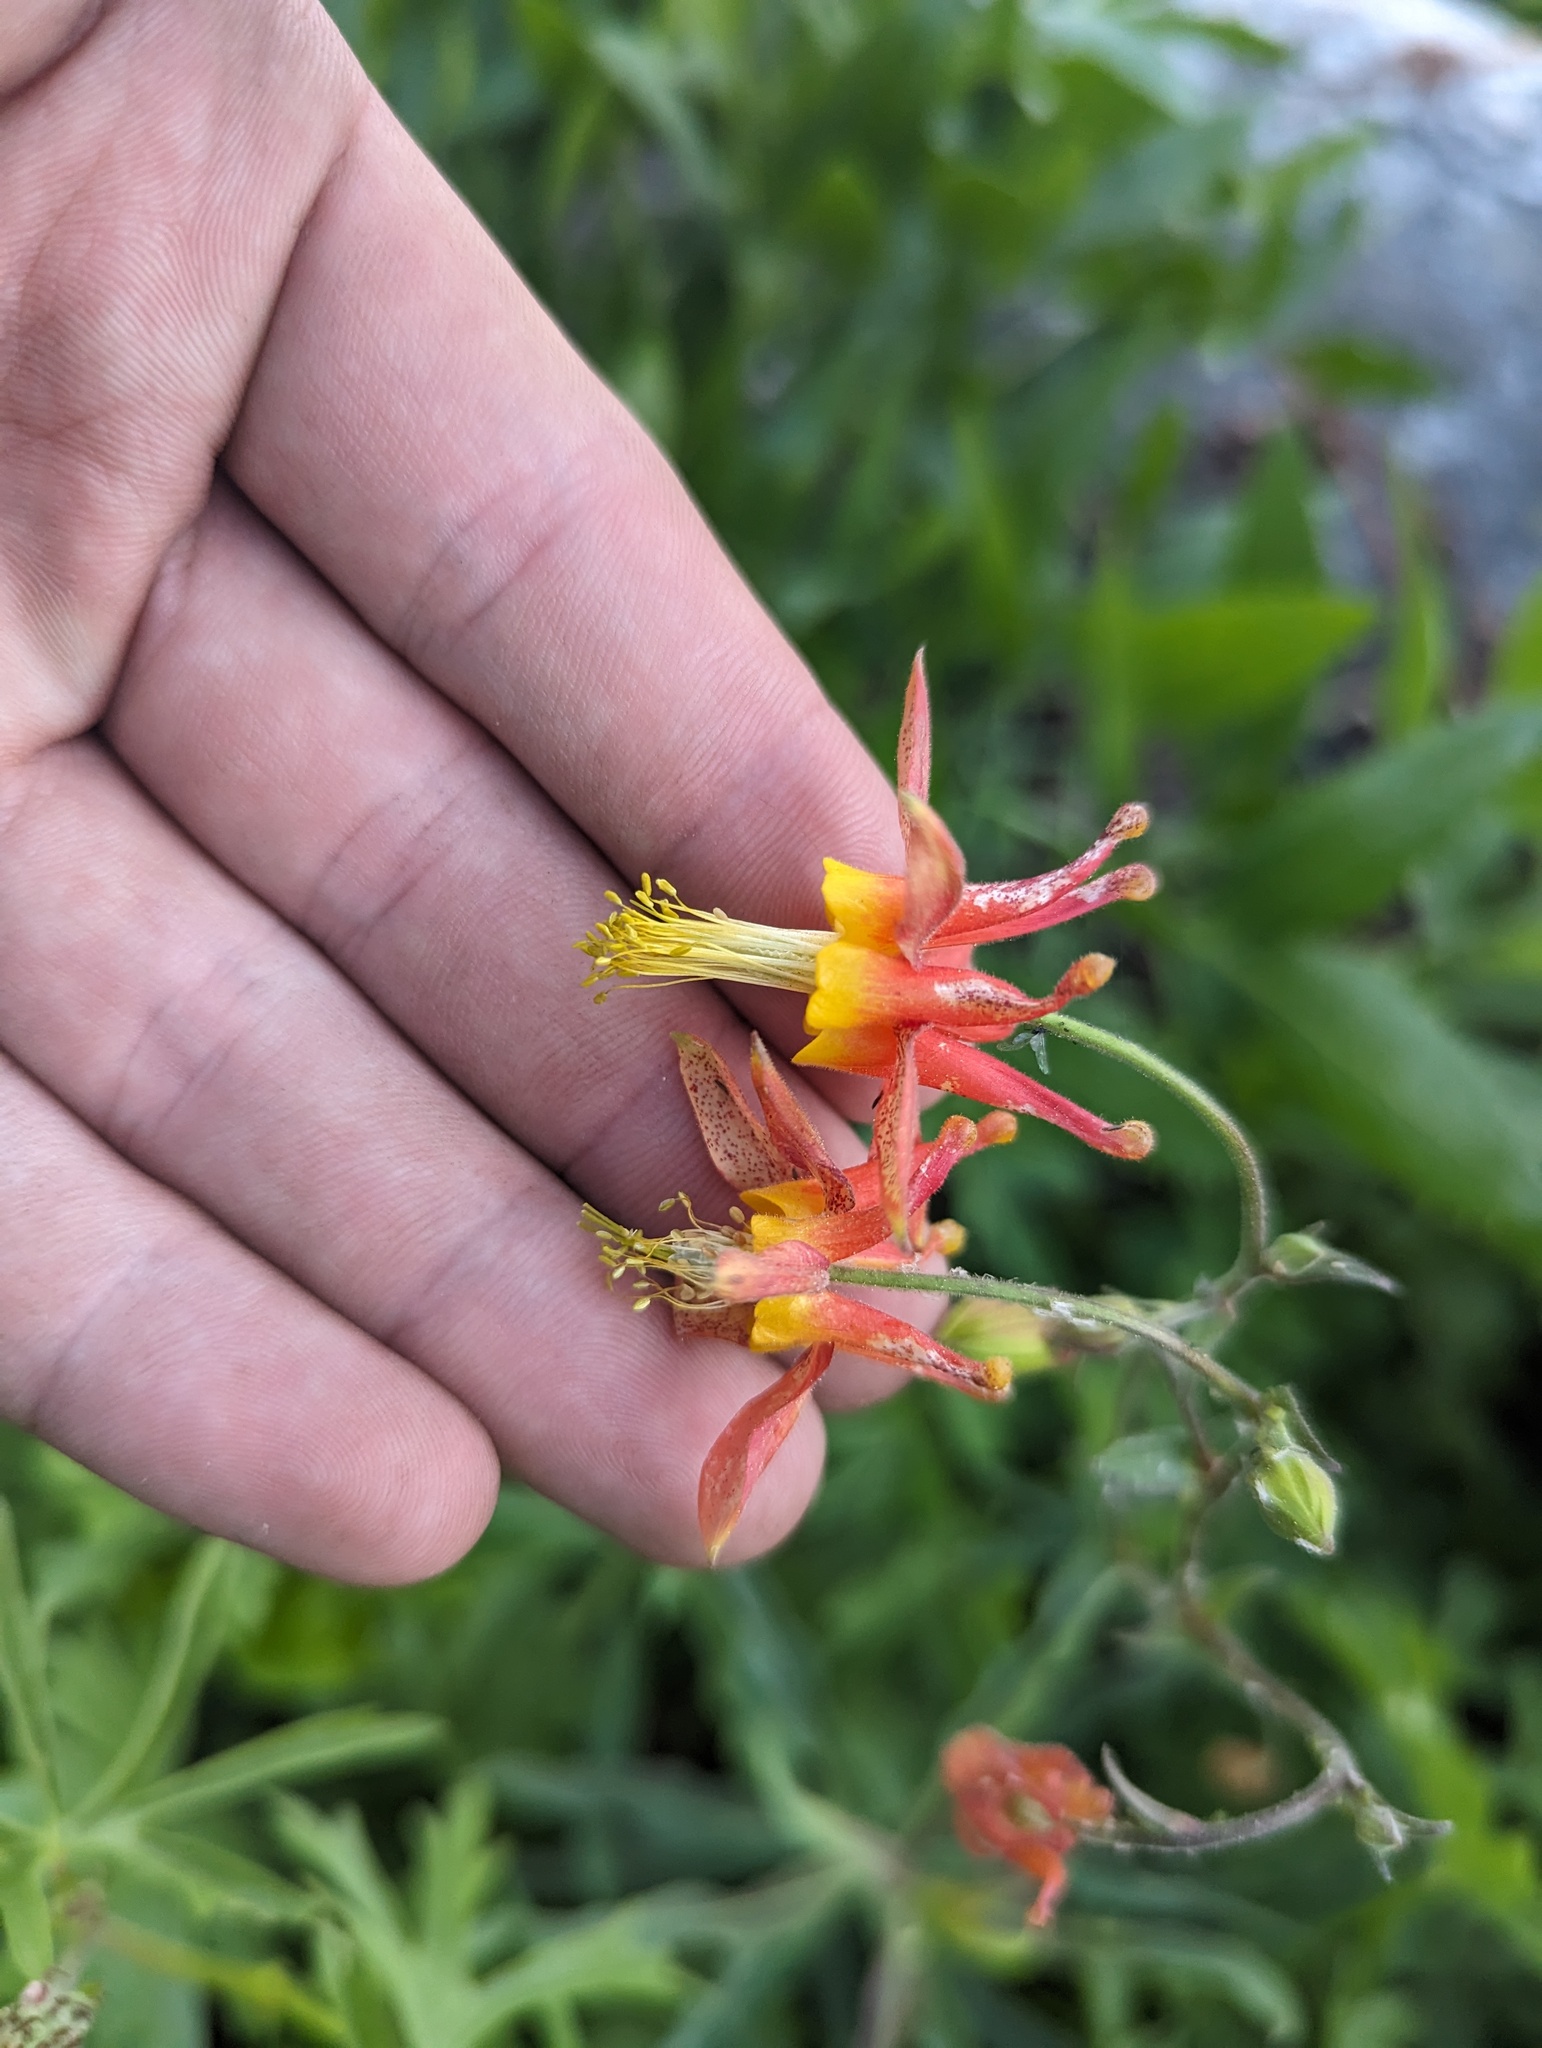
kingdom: Plantae
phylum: Tracheophyta
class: Magnoliopsida
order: Ranunculales
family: Ranunculaceae
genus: Aquilegia
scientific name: Aquilegia formosa
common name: Sitka columbine
